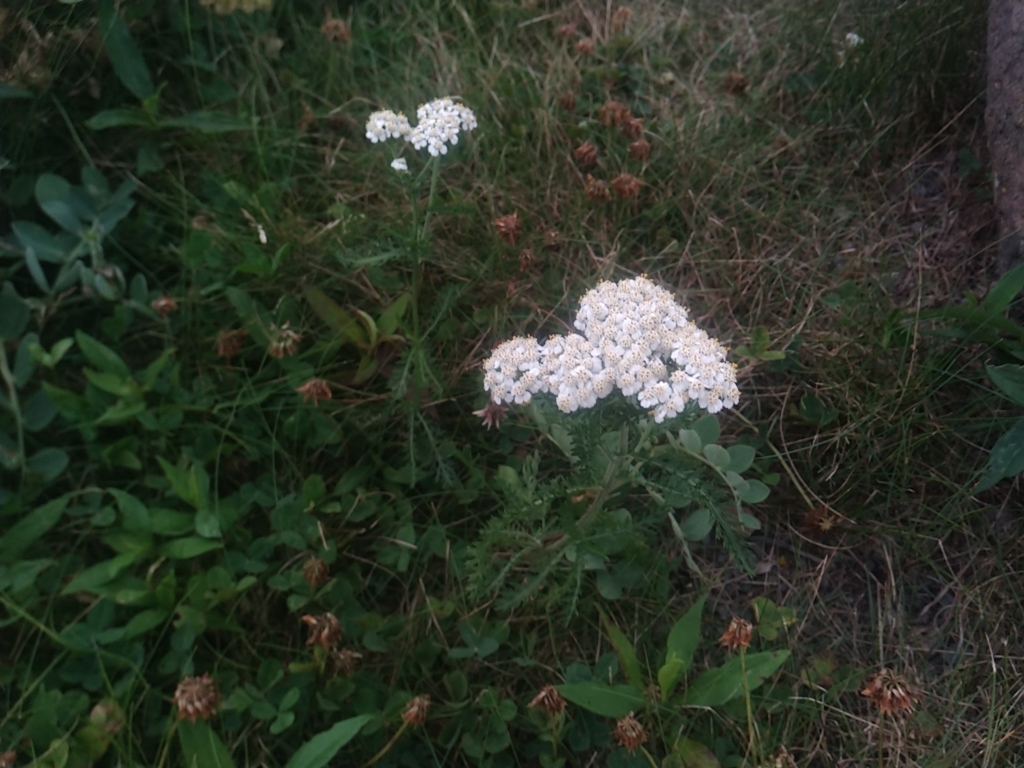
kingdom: Plantae
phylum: Tracheophyta
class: Magnoliopsida
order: Asterales
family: Asteraceae
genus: Achillea
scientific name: Achillea millefolium
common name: Yarrow
